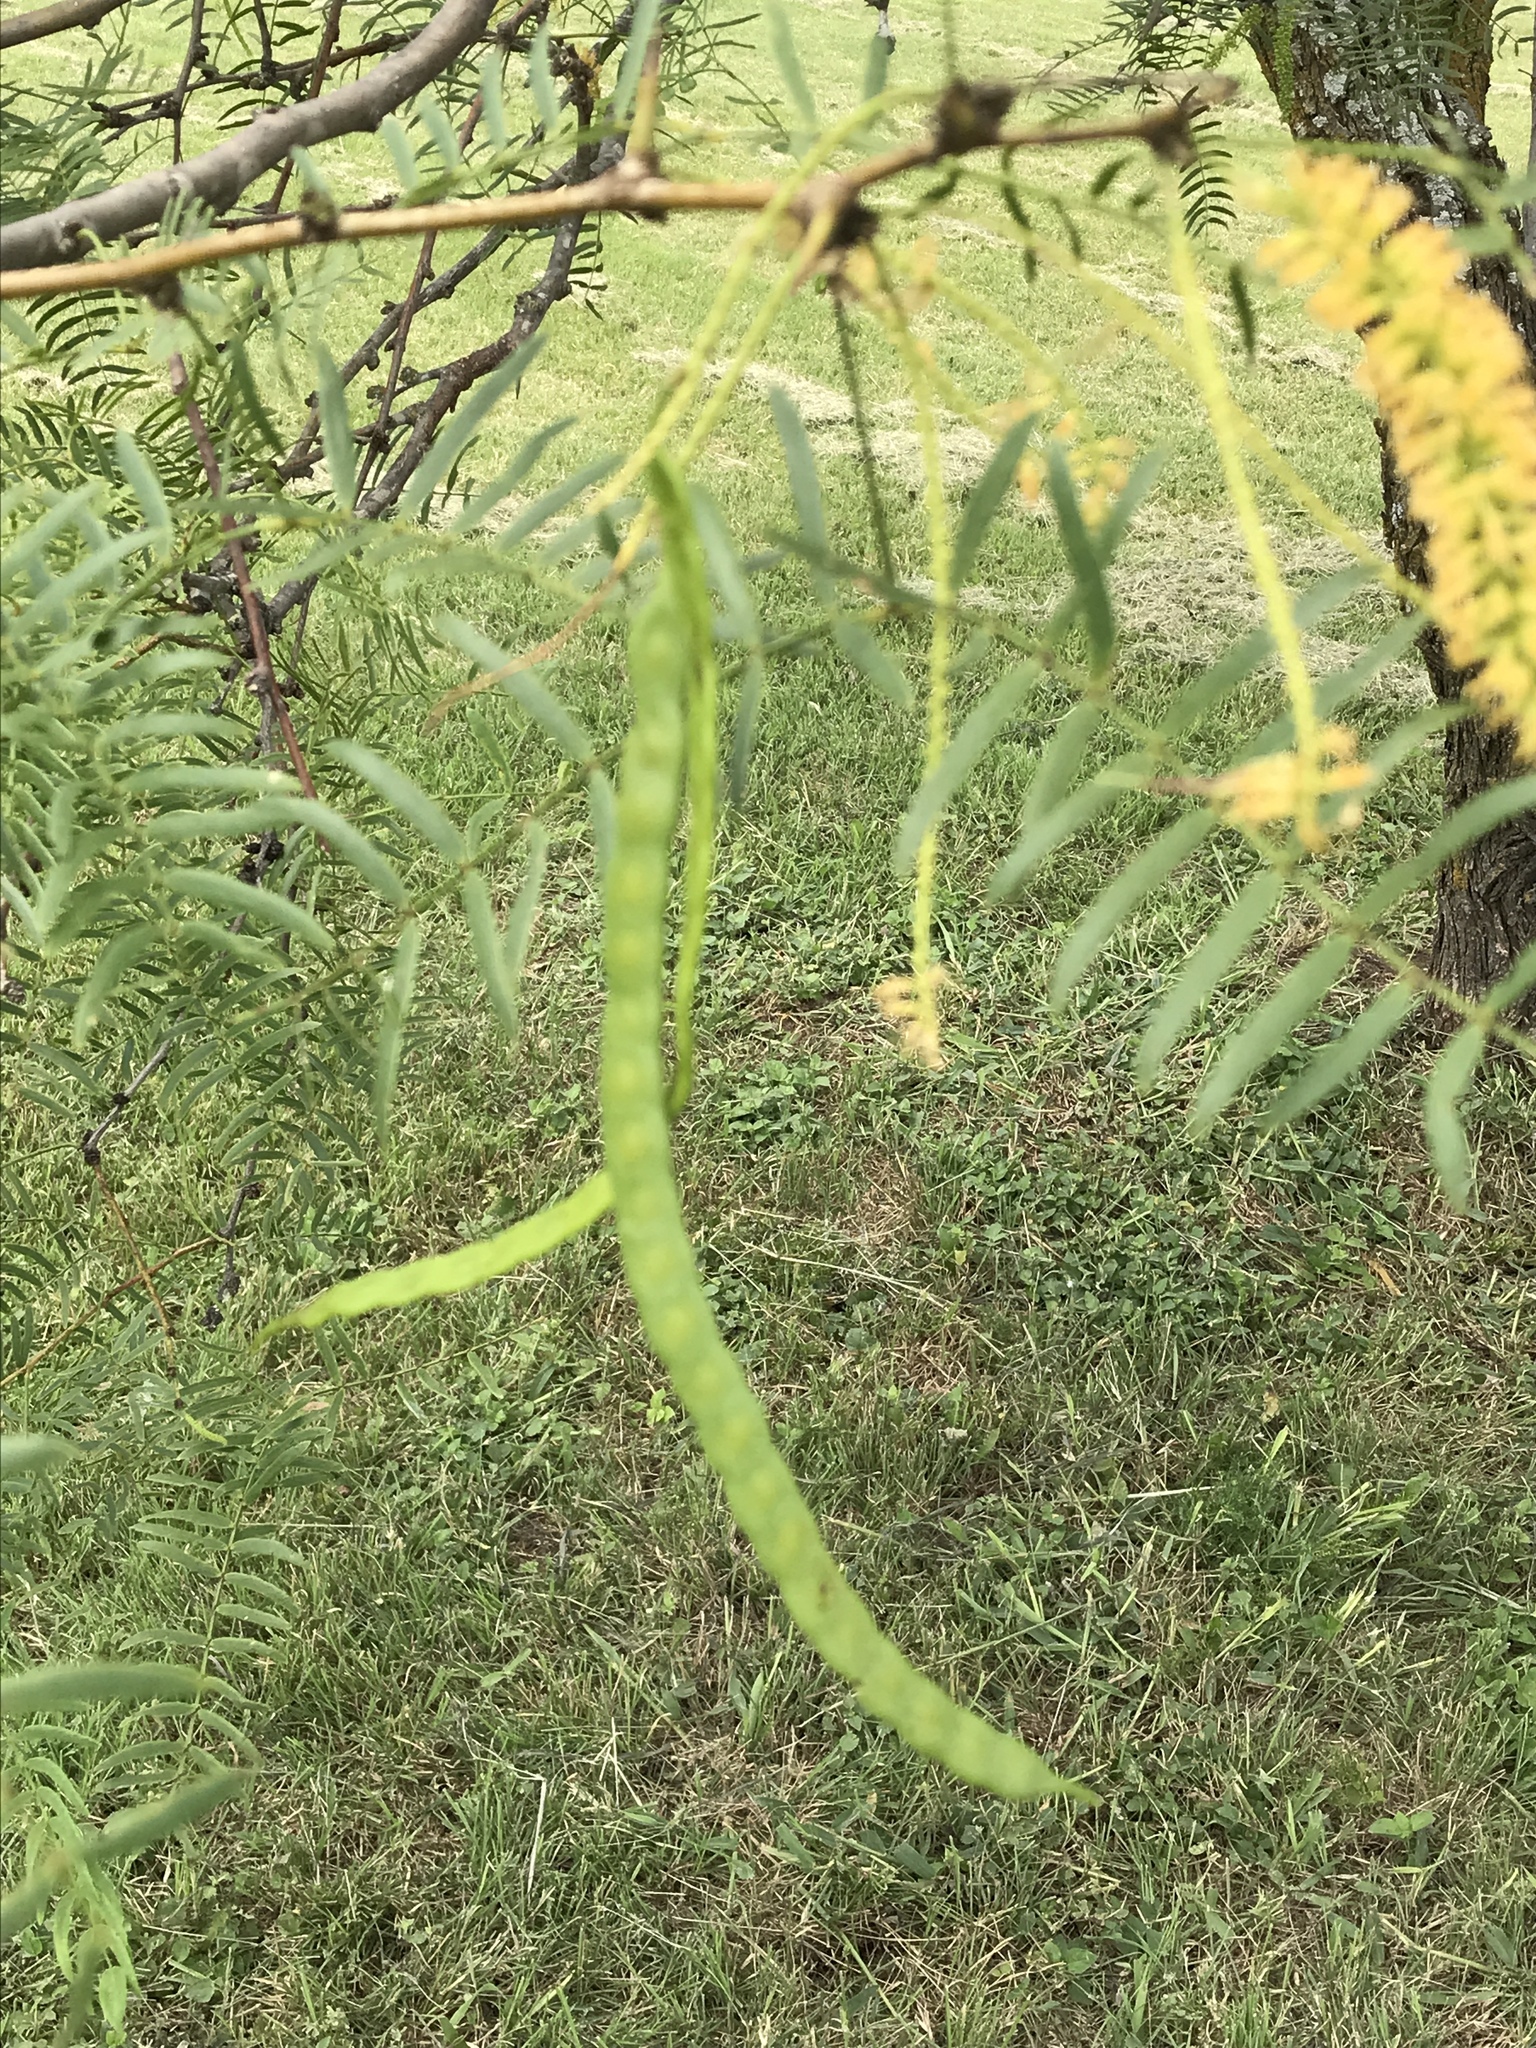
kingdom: Plantae
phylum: Tracheophyta
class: Magnoliopsida
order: Fabales
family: Fabaceae
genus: Prosopis
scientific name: Prosopis glandulosa
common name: Honey mesquite
